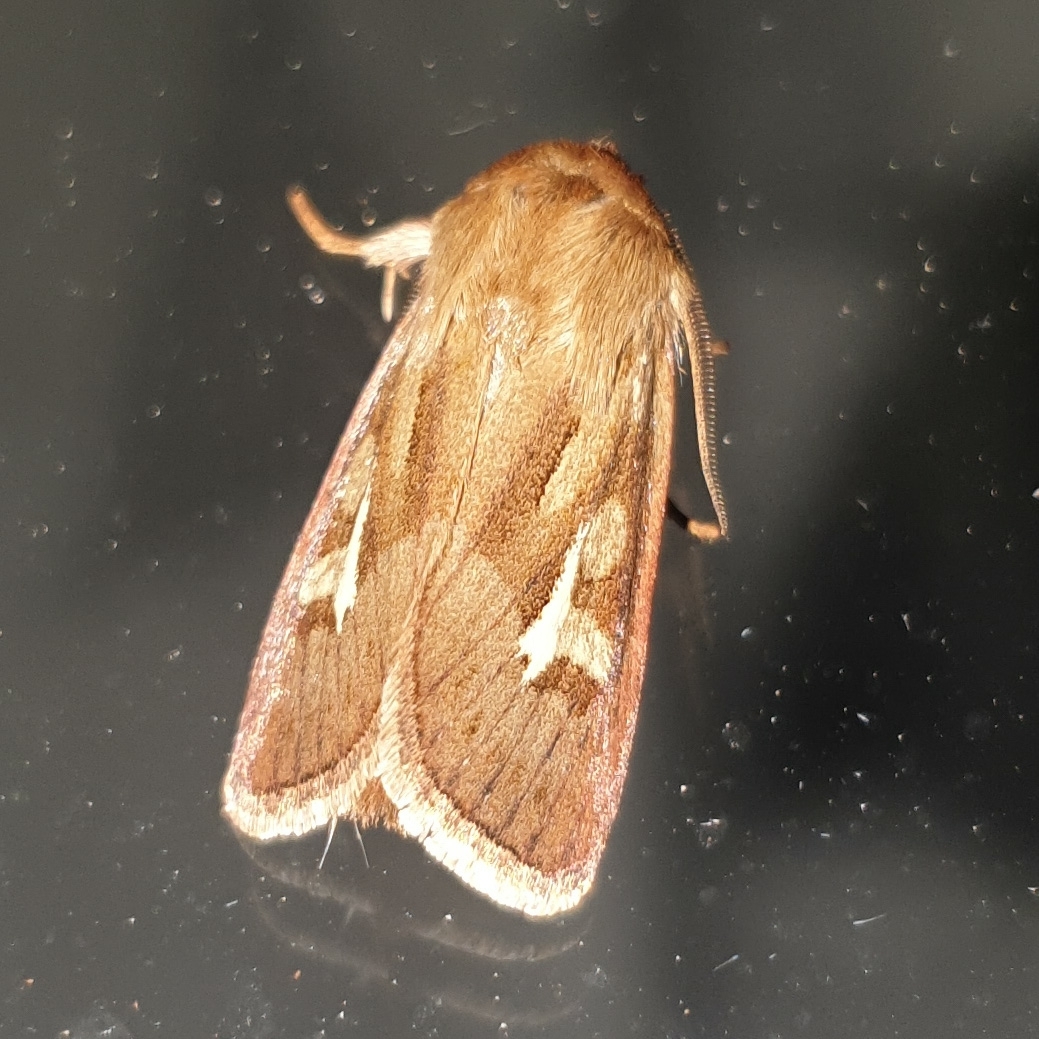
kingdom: Animalia
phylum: Arthropoda
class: Insecta
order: Lepidoptera
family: Noctuidae
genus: Cerapteryx
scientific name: Cerapteryx graminis
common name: Antler moth
